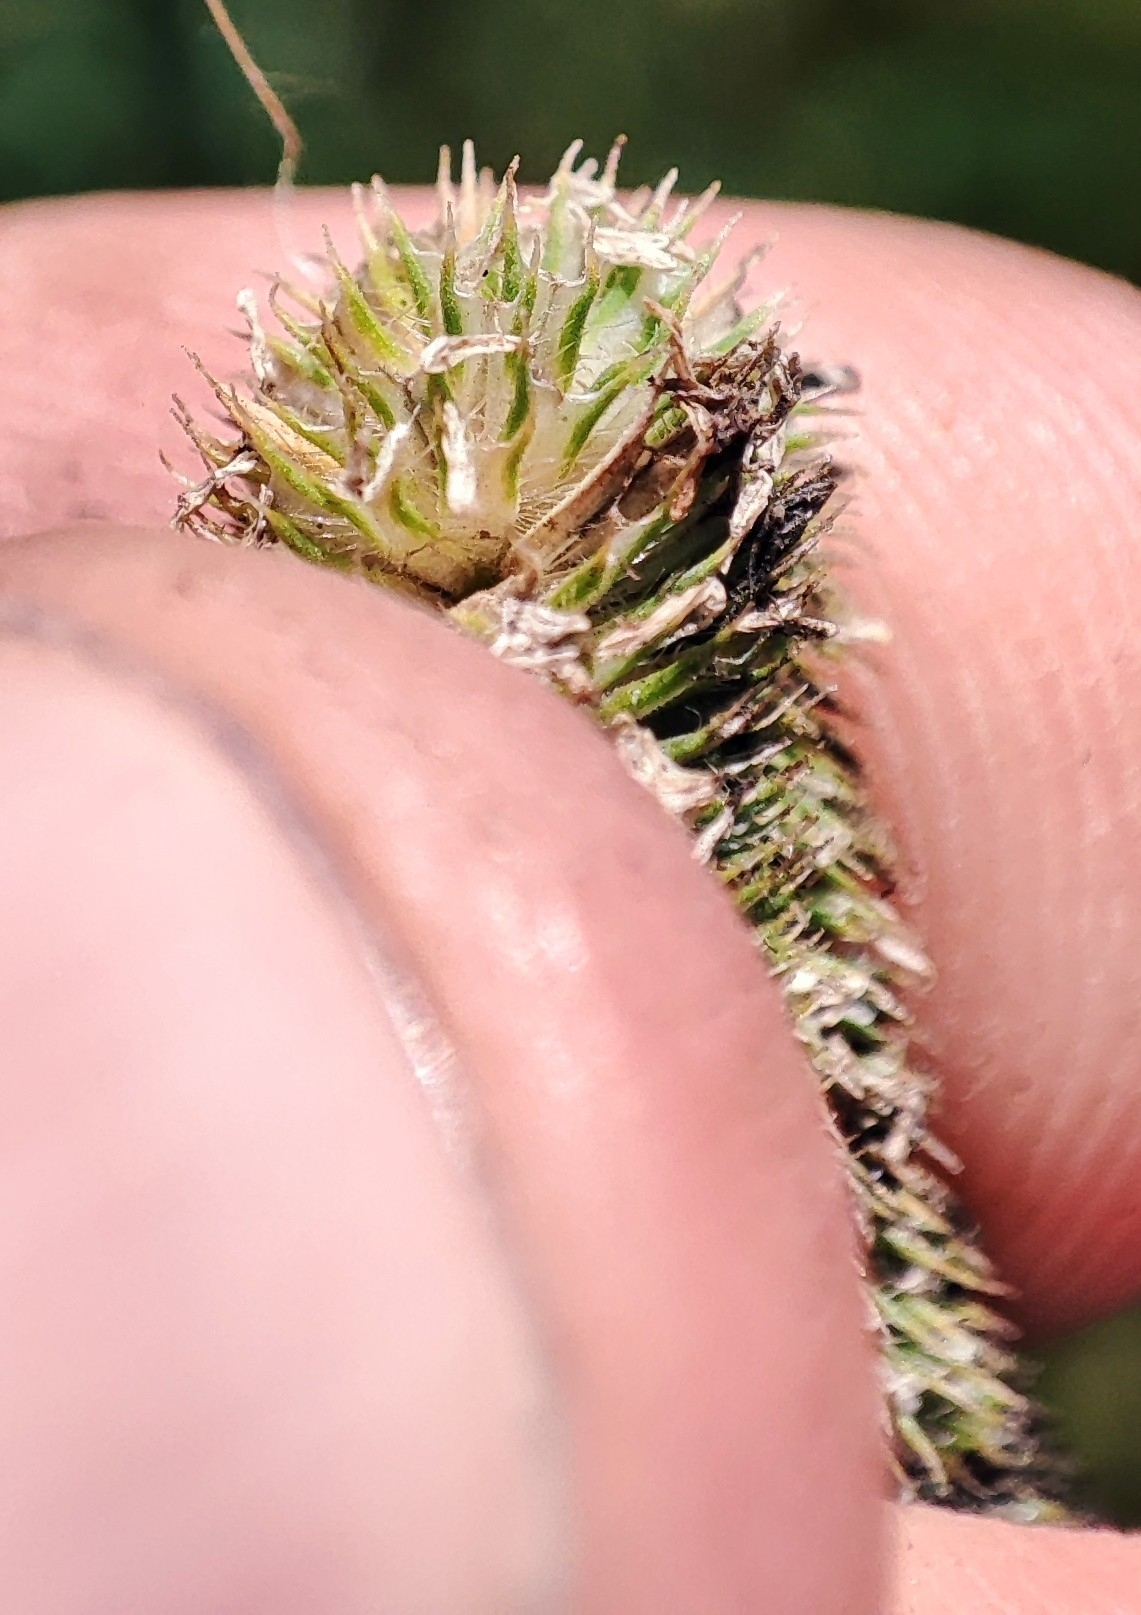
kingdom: Plantae
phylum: Tracheophyta
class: Liliopsida
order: Poales
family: Poaceae
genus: Phleum
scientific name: Phleum pratense
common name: Timothy grass
